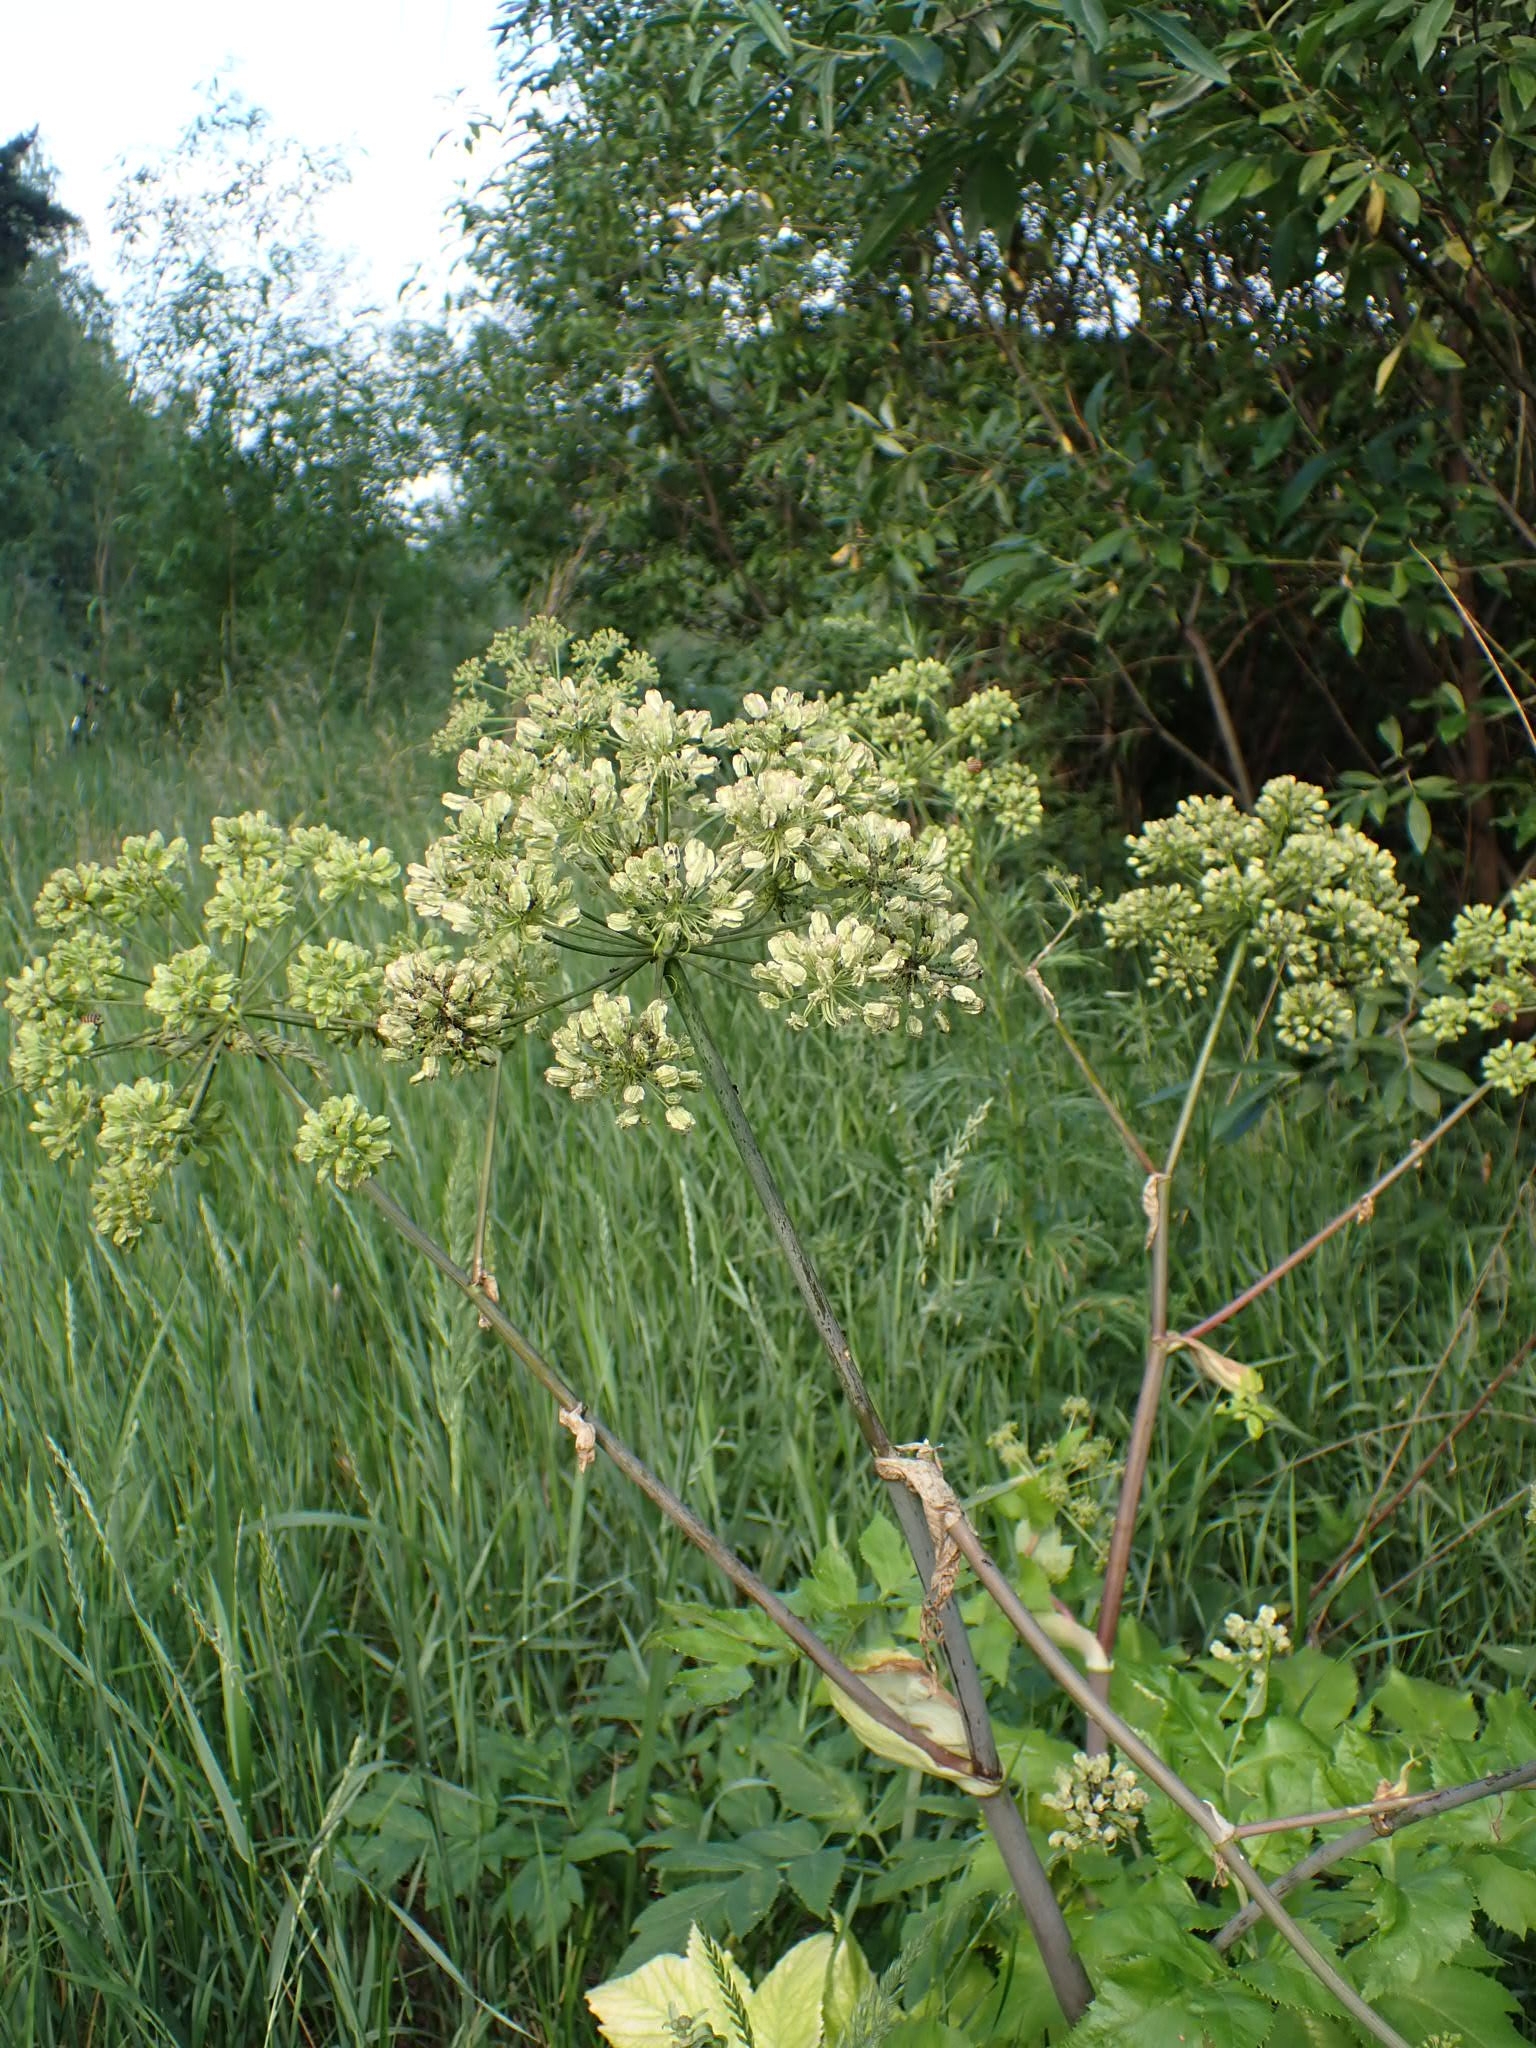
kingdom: Plantae
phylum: Tracheophyta
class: Magnoliopsida
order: Apiales
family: Apiaceae
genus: Angelica
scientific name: Angelica decurrens
